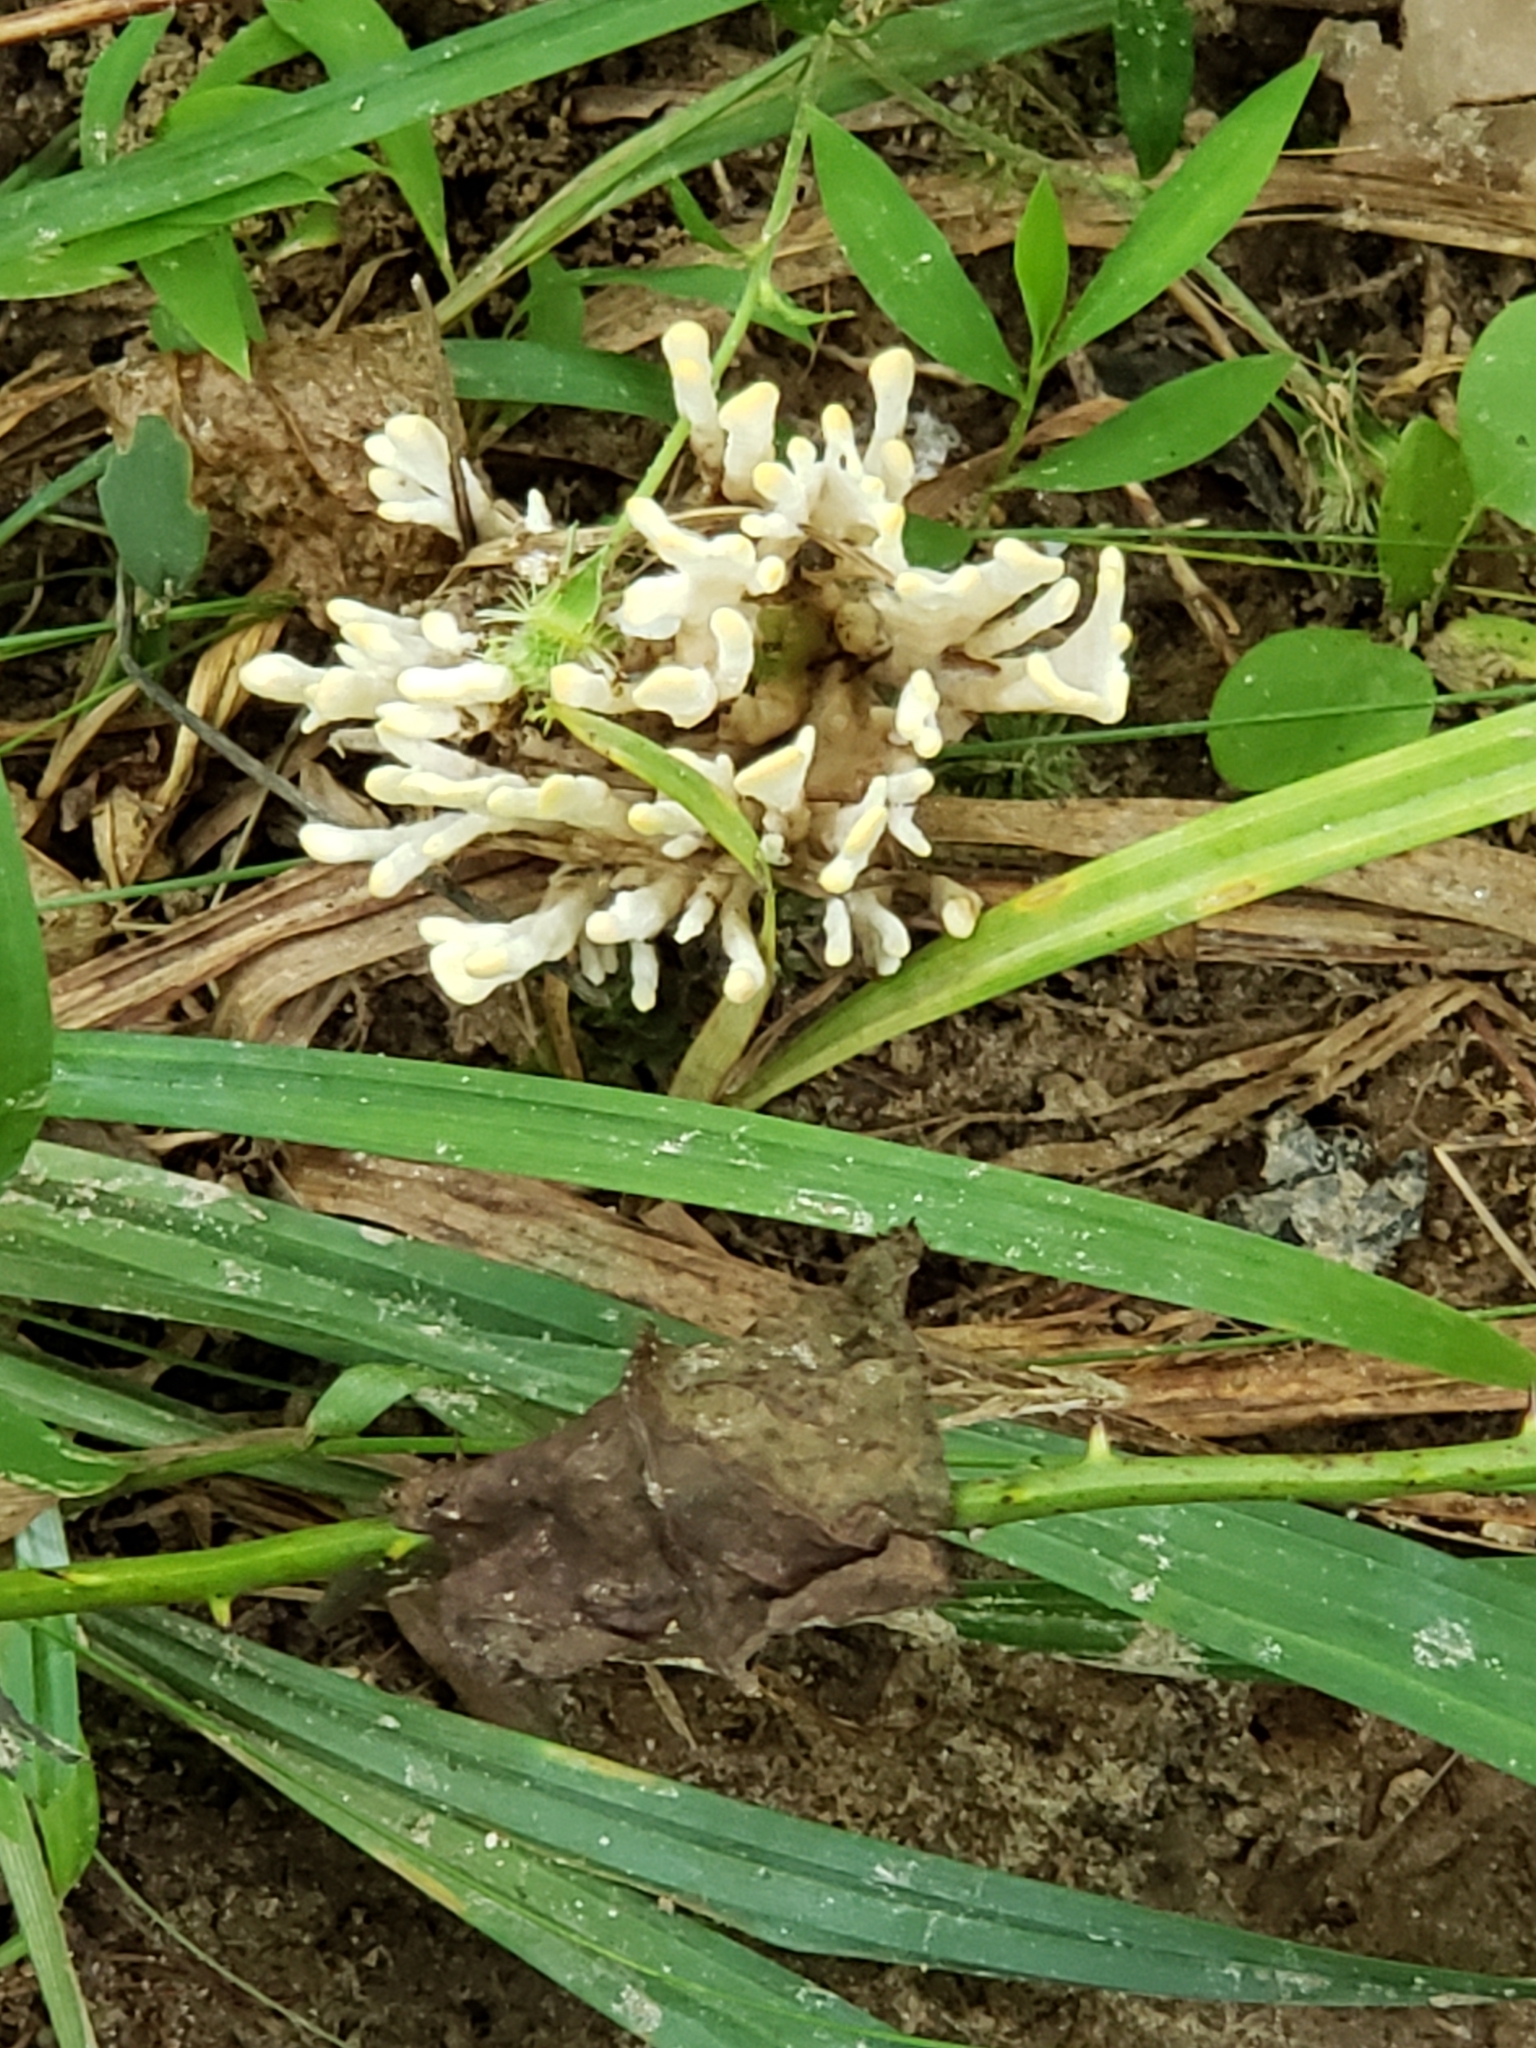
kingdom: Fungi
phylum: Basidiomycota
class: Agaricomycetes
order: Sebacinales
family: Sebacinaceae
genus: Sebacina
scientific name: Sebacina schweinitzii
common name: Jellied false coral fungus
